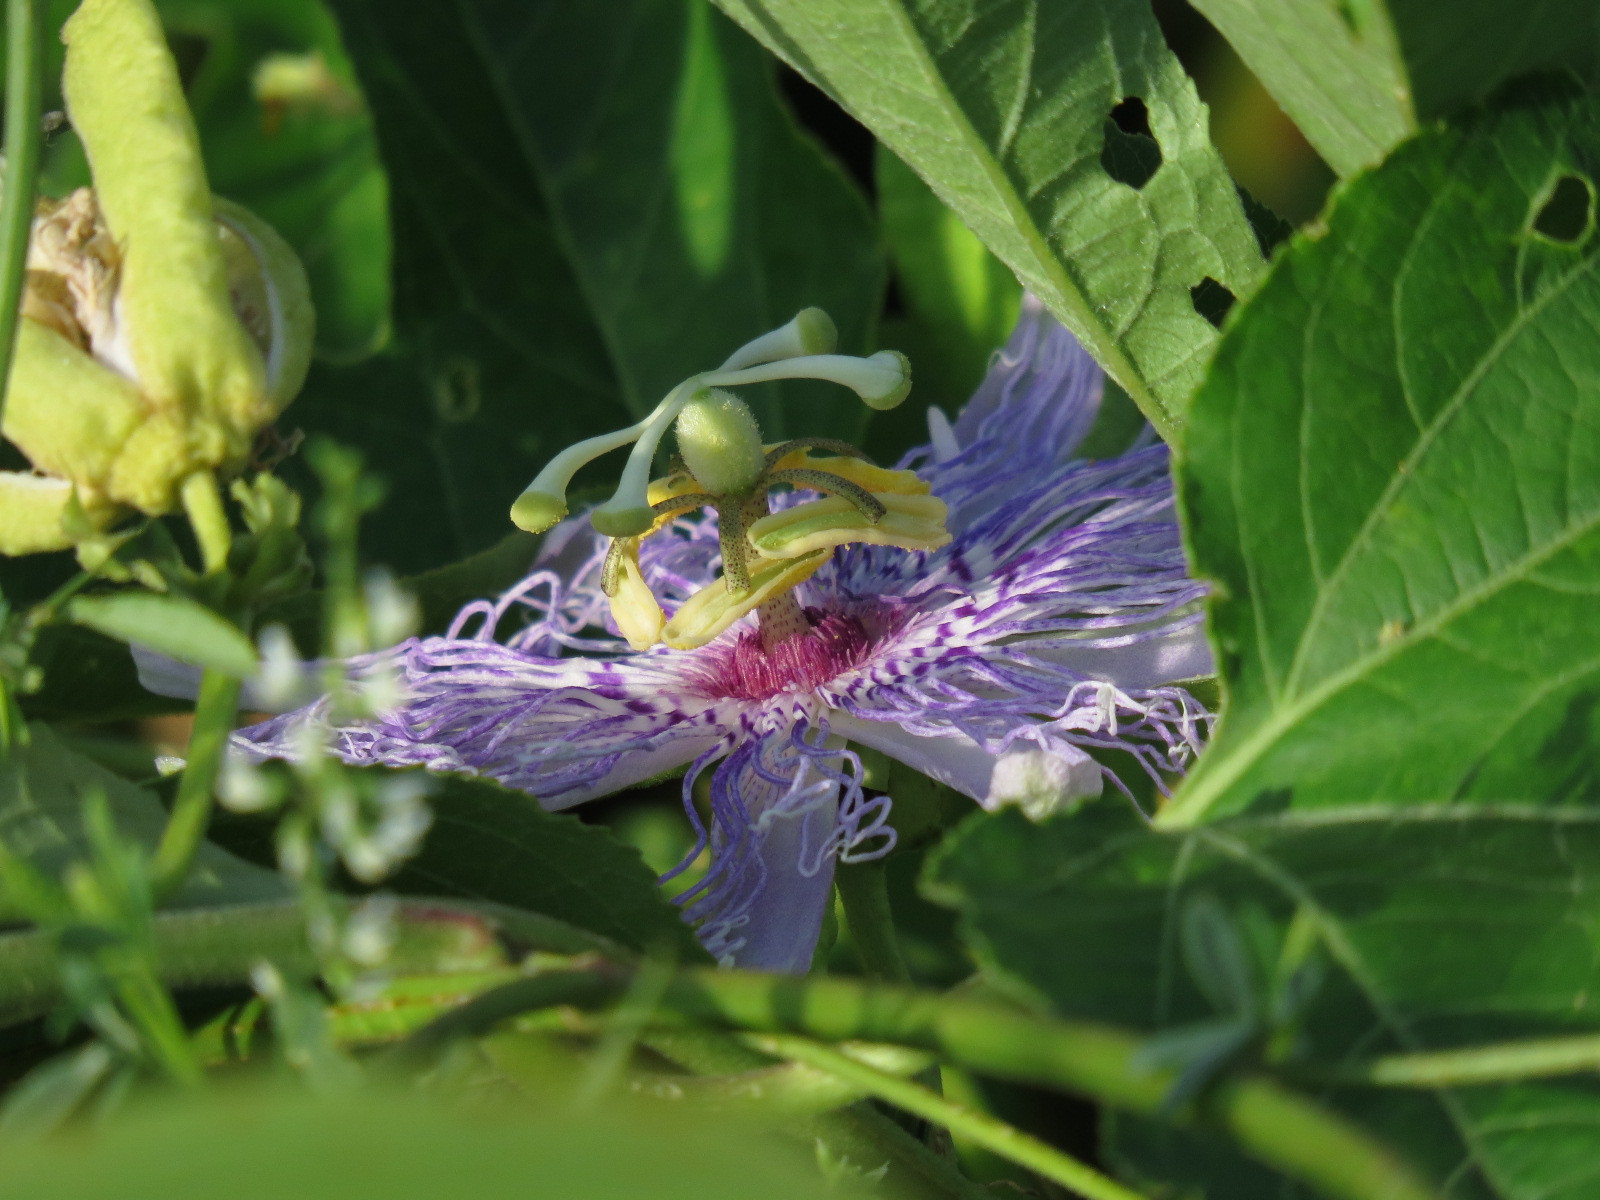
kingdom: Plantae
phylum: Tracheophyta
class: Magnoliopsida
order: Malpighiales
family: Passifloraceae
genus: Passiflora
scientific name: Passiflora incarnata
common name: Apricot-vine
